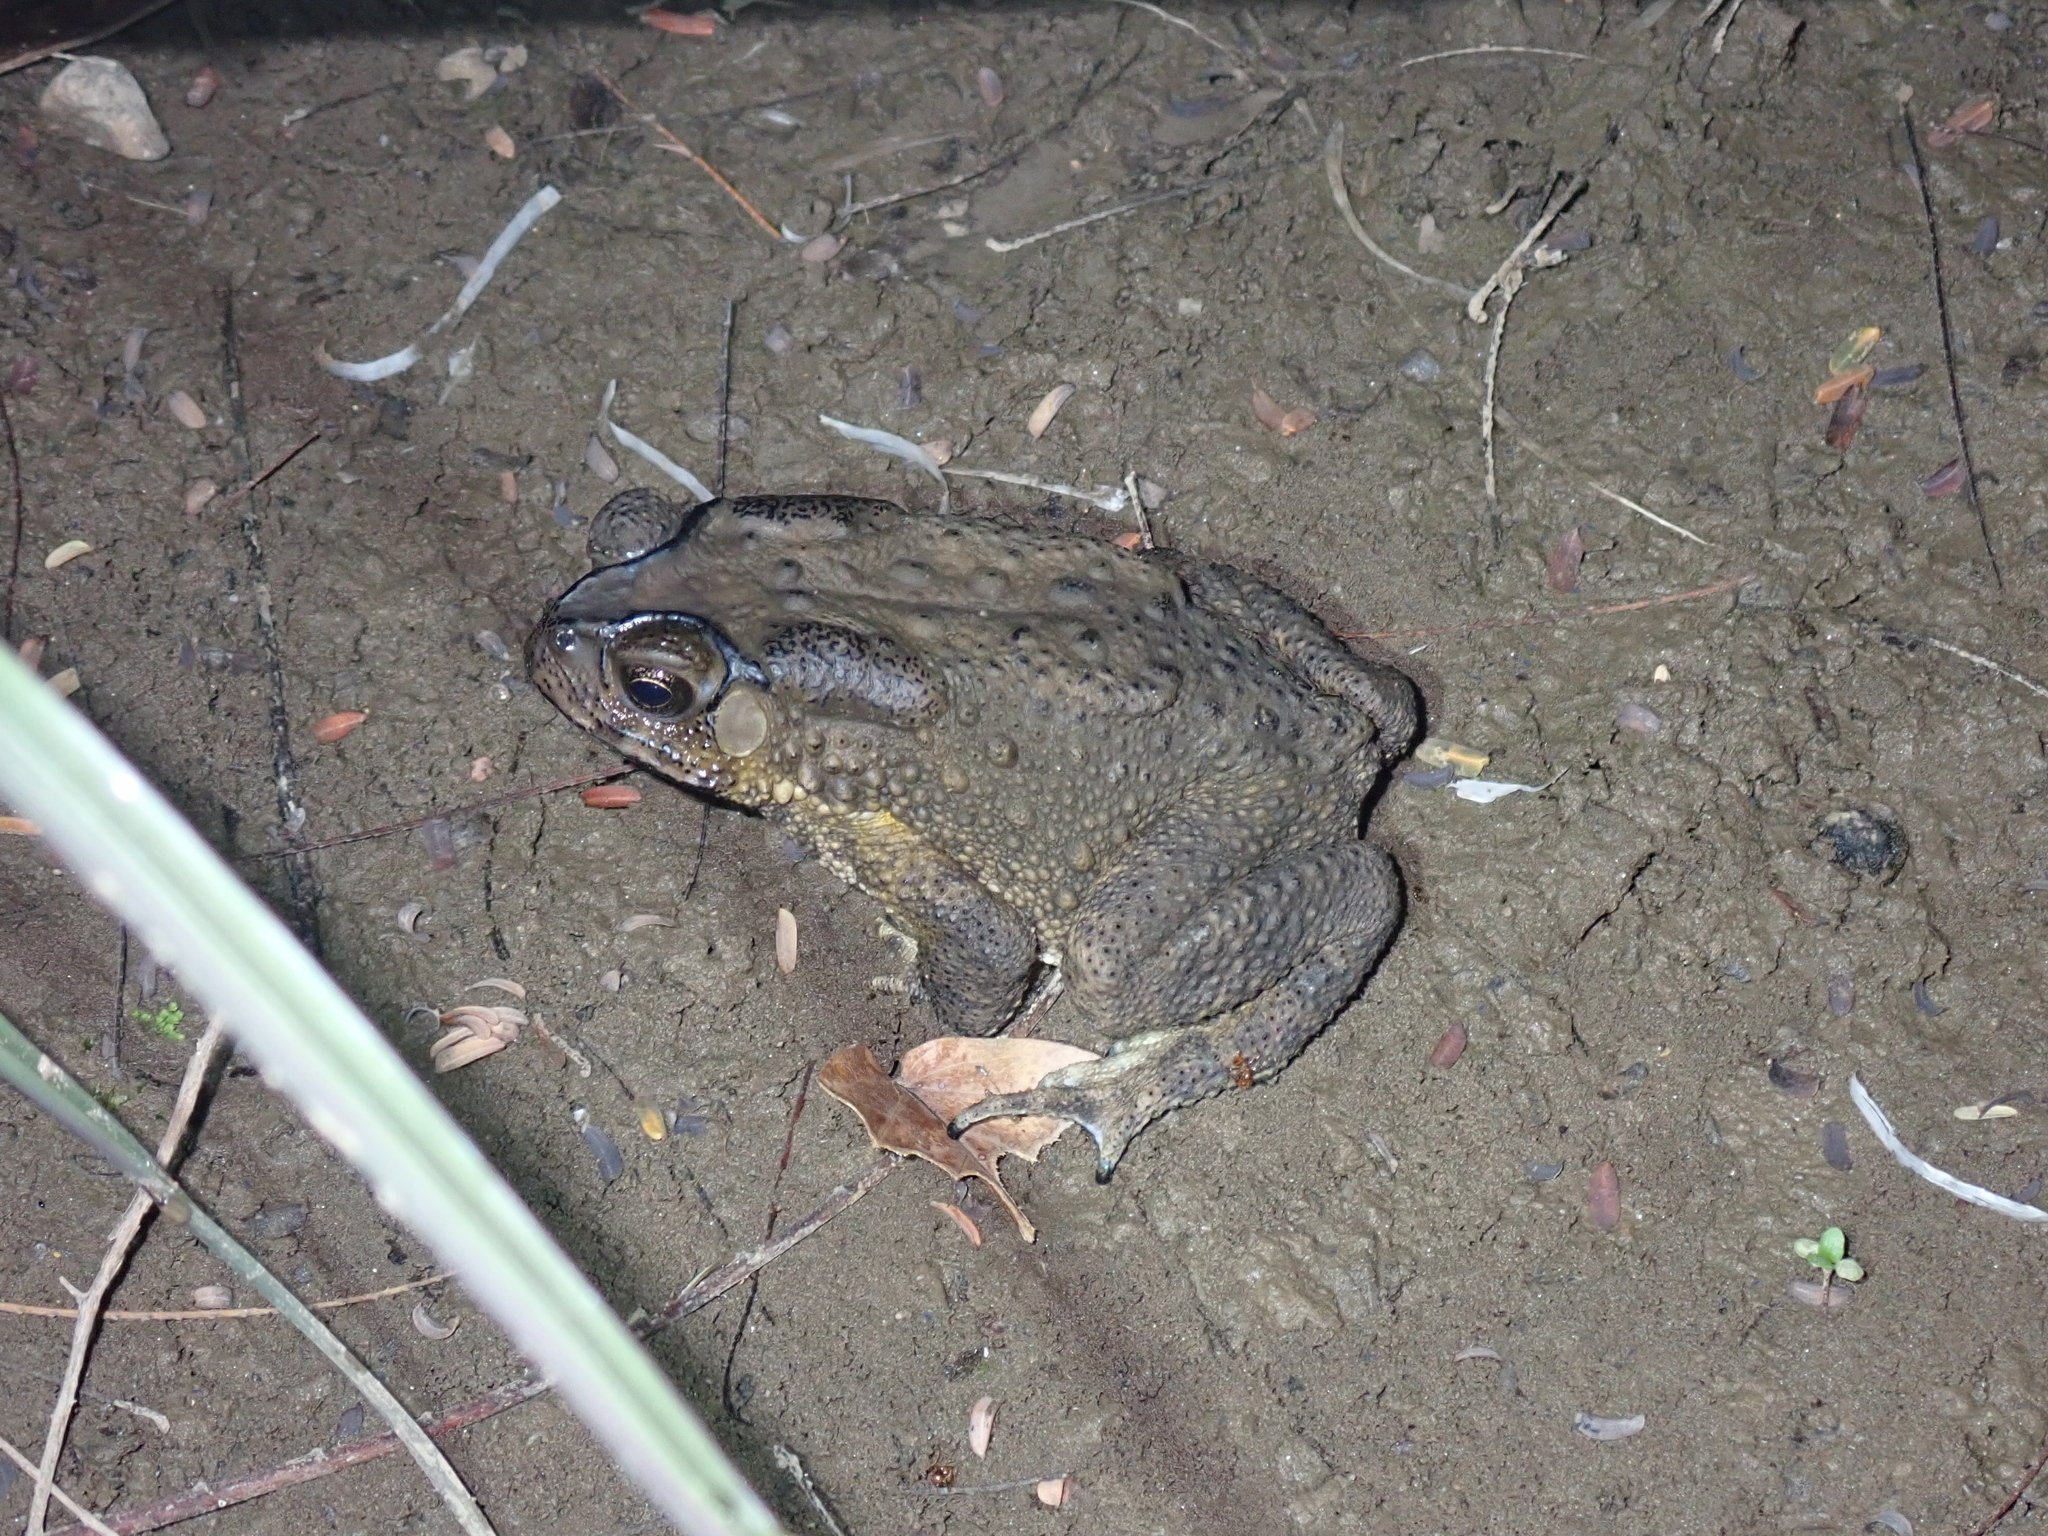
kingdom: Animalia
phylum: Chordata
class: Amphibia
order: Anura
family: Bufonidae
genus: Duttaphrynus
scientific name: Duttaphrynus melanostictus
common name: Common sunda toad
